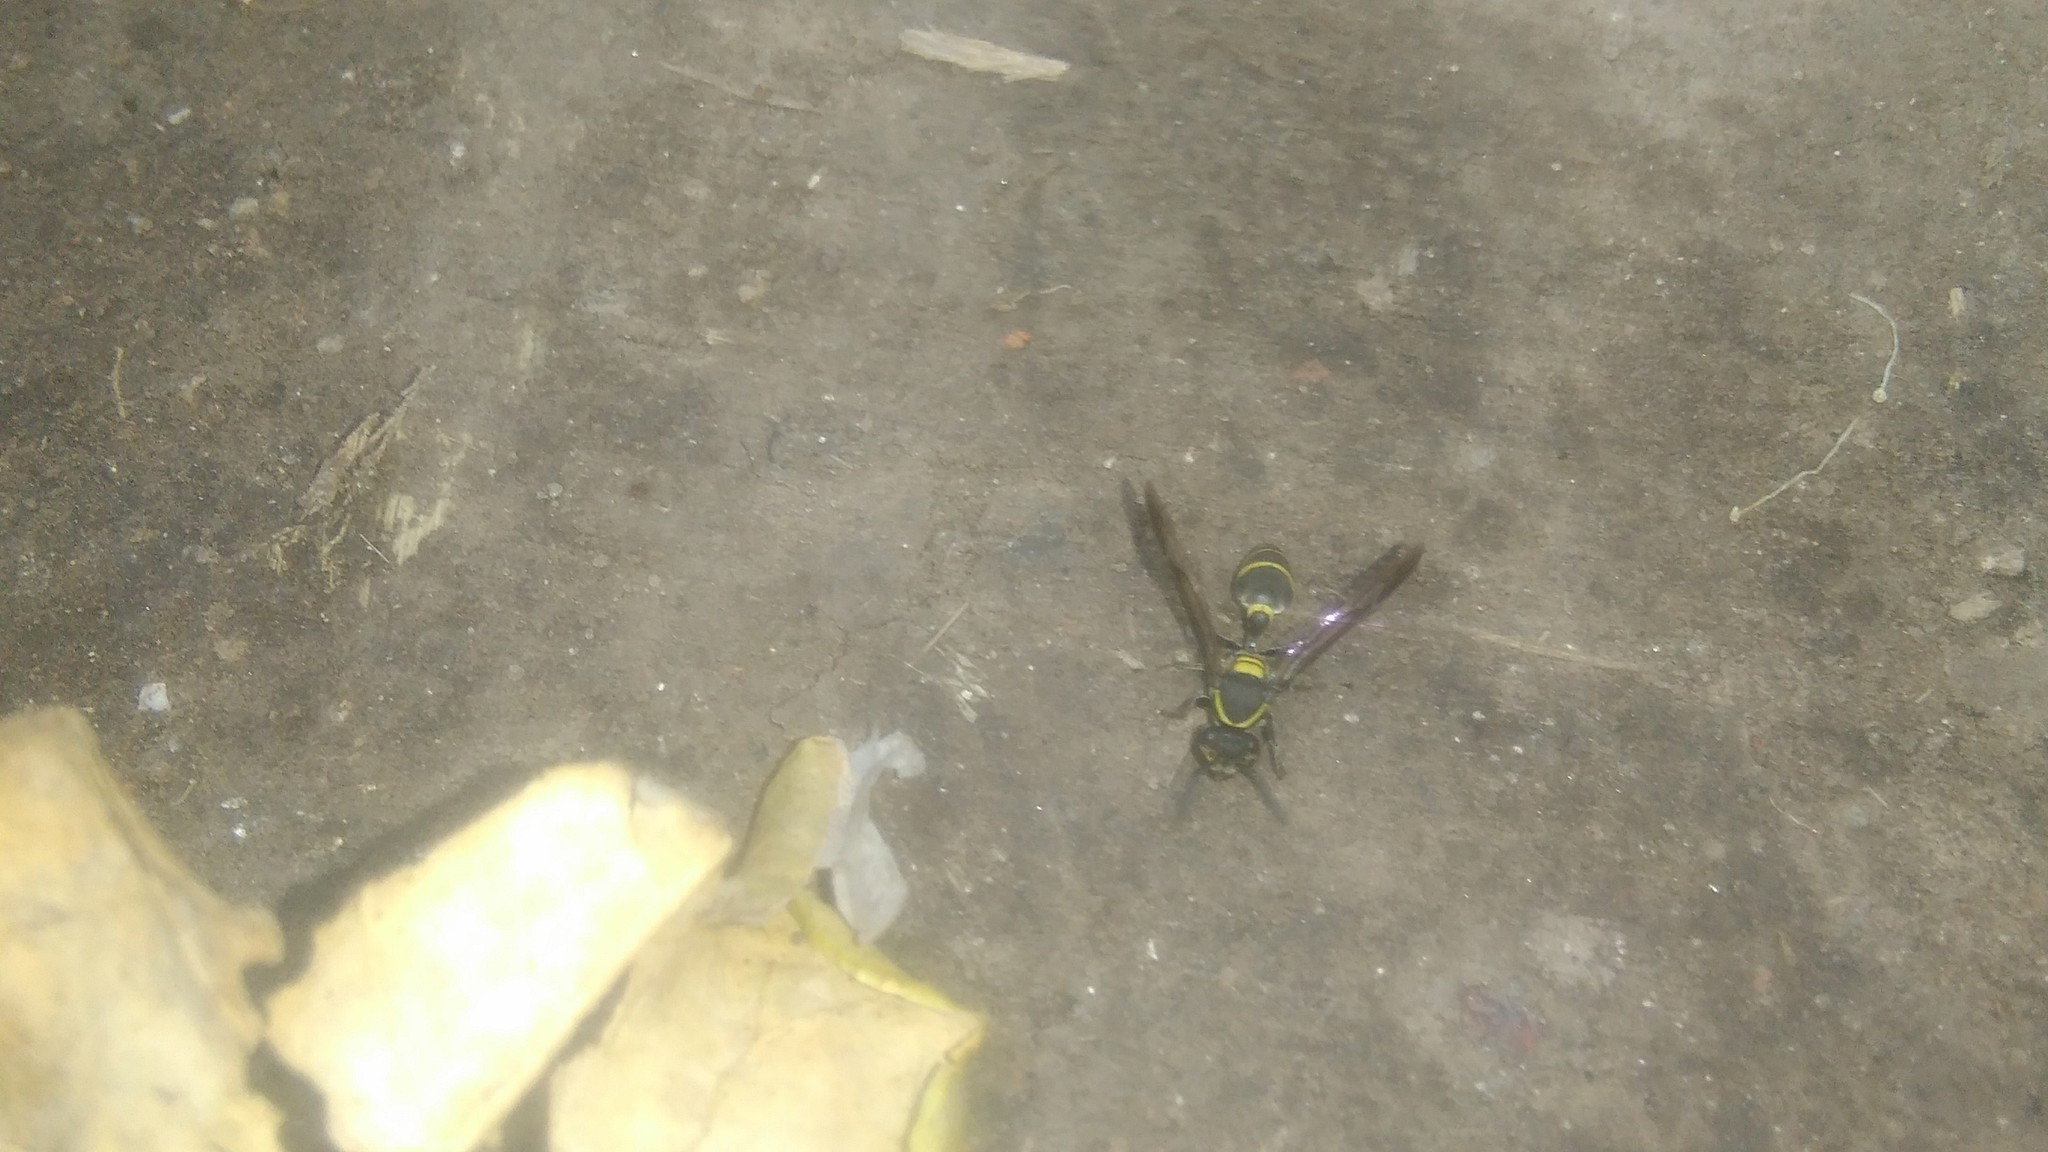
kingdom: Animalia
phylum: Arthropoda
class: Insecta
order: Hymenoptera
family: Eumenidae
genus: Polybia
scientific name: Polybia occidentalis
